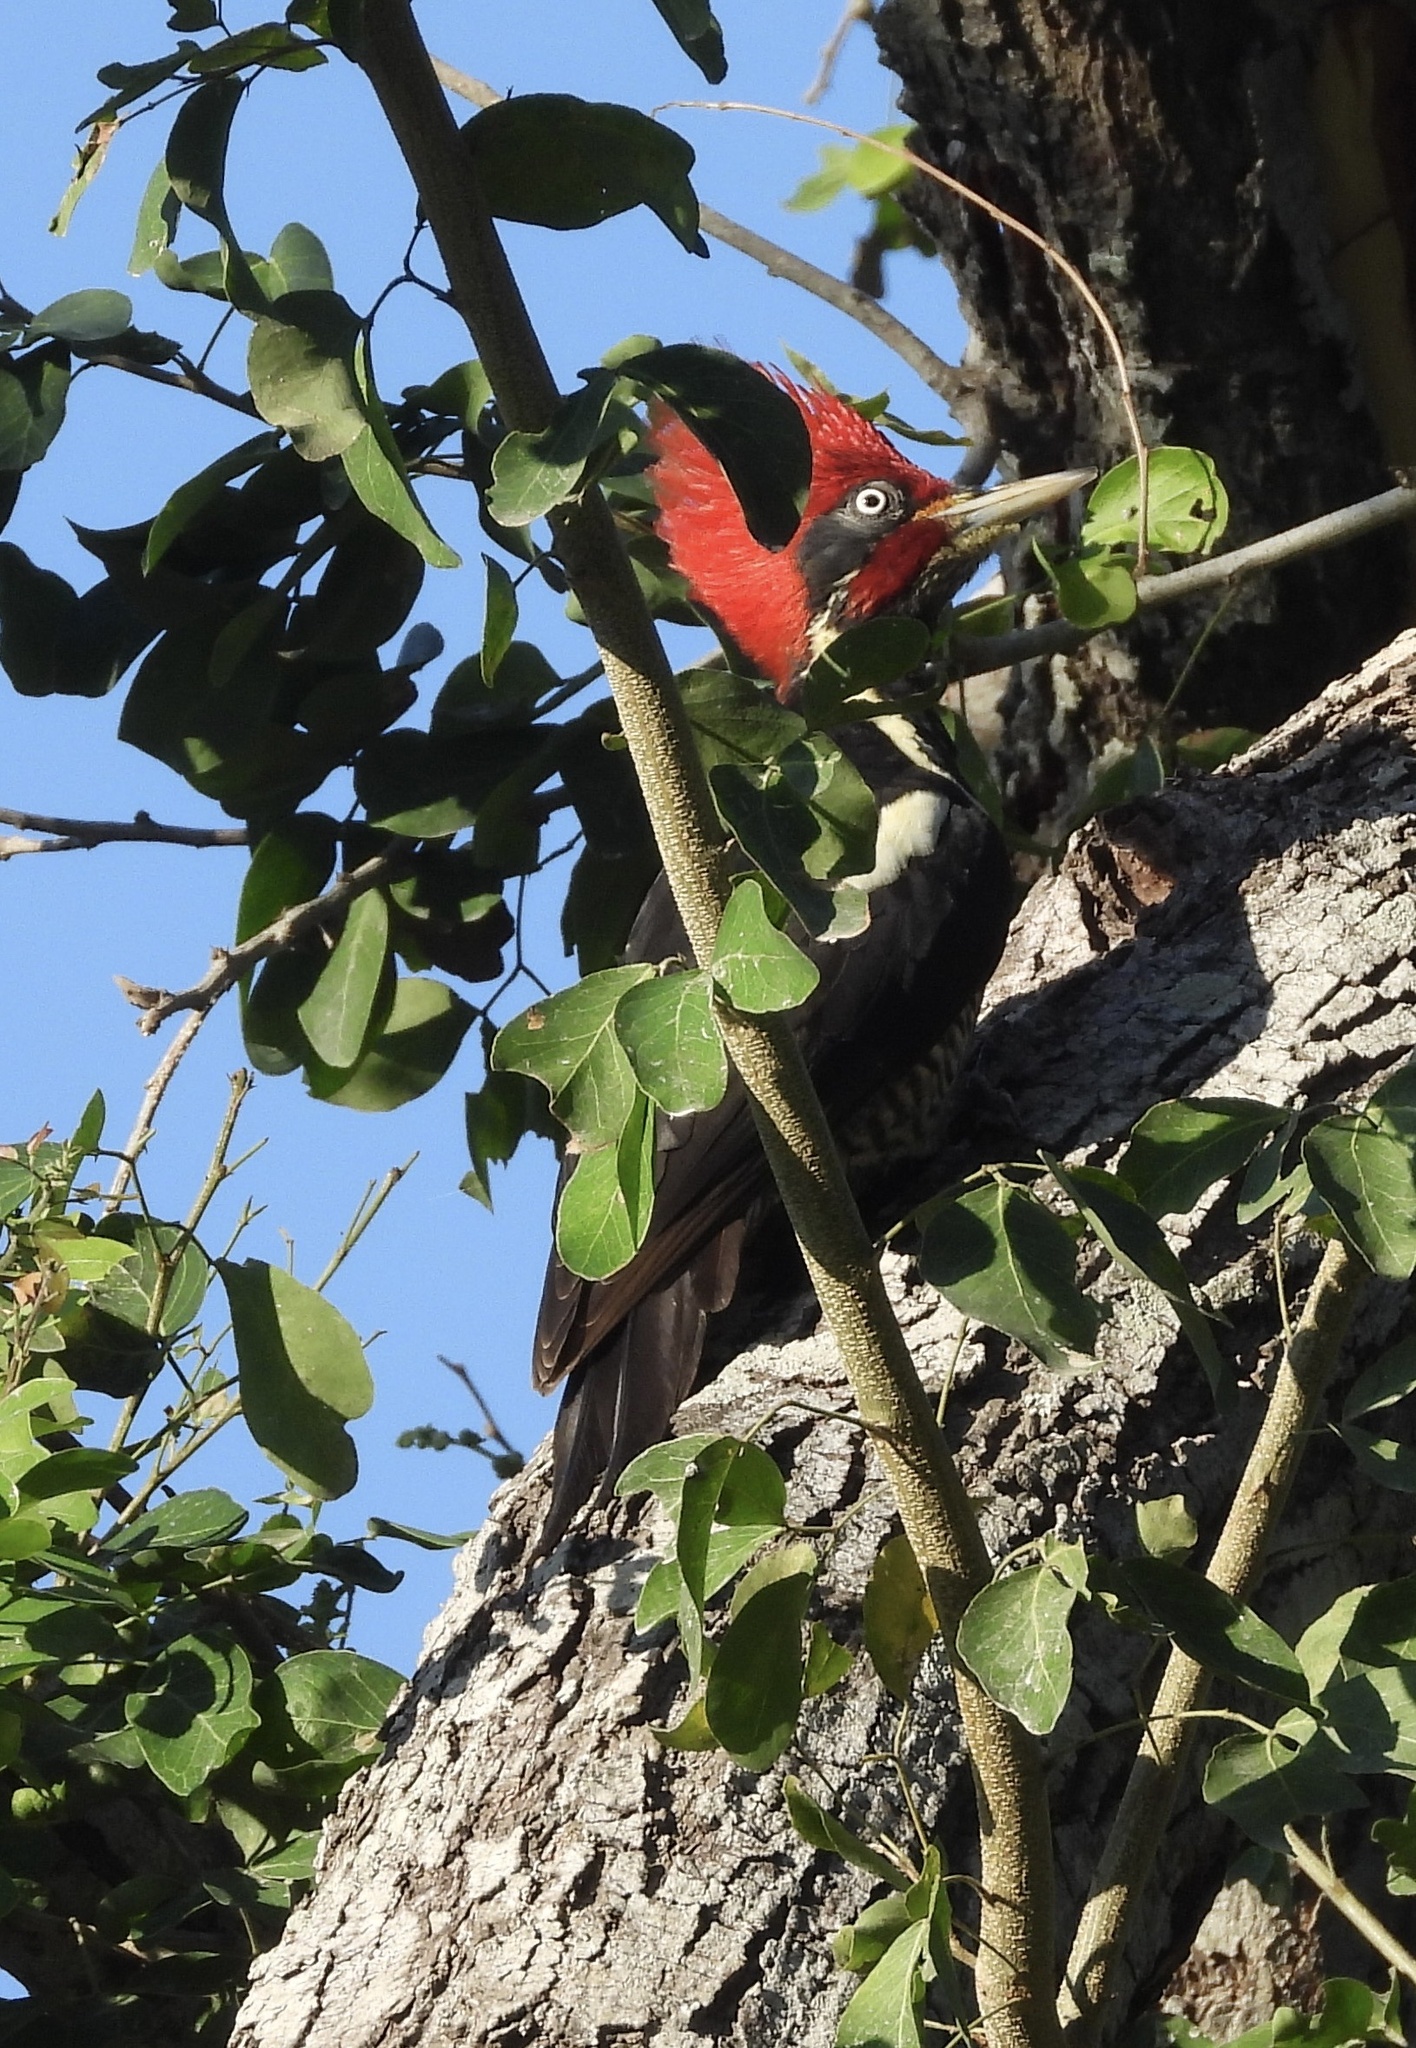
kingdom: Animalia
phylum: Chordata
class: Aves
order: Piciformes
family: Picidae
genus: Dryocopus
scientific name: Dryocopus lineatus
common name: Lineated woodpecker
